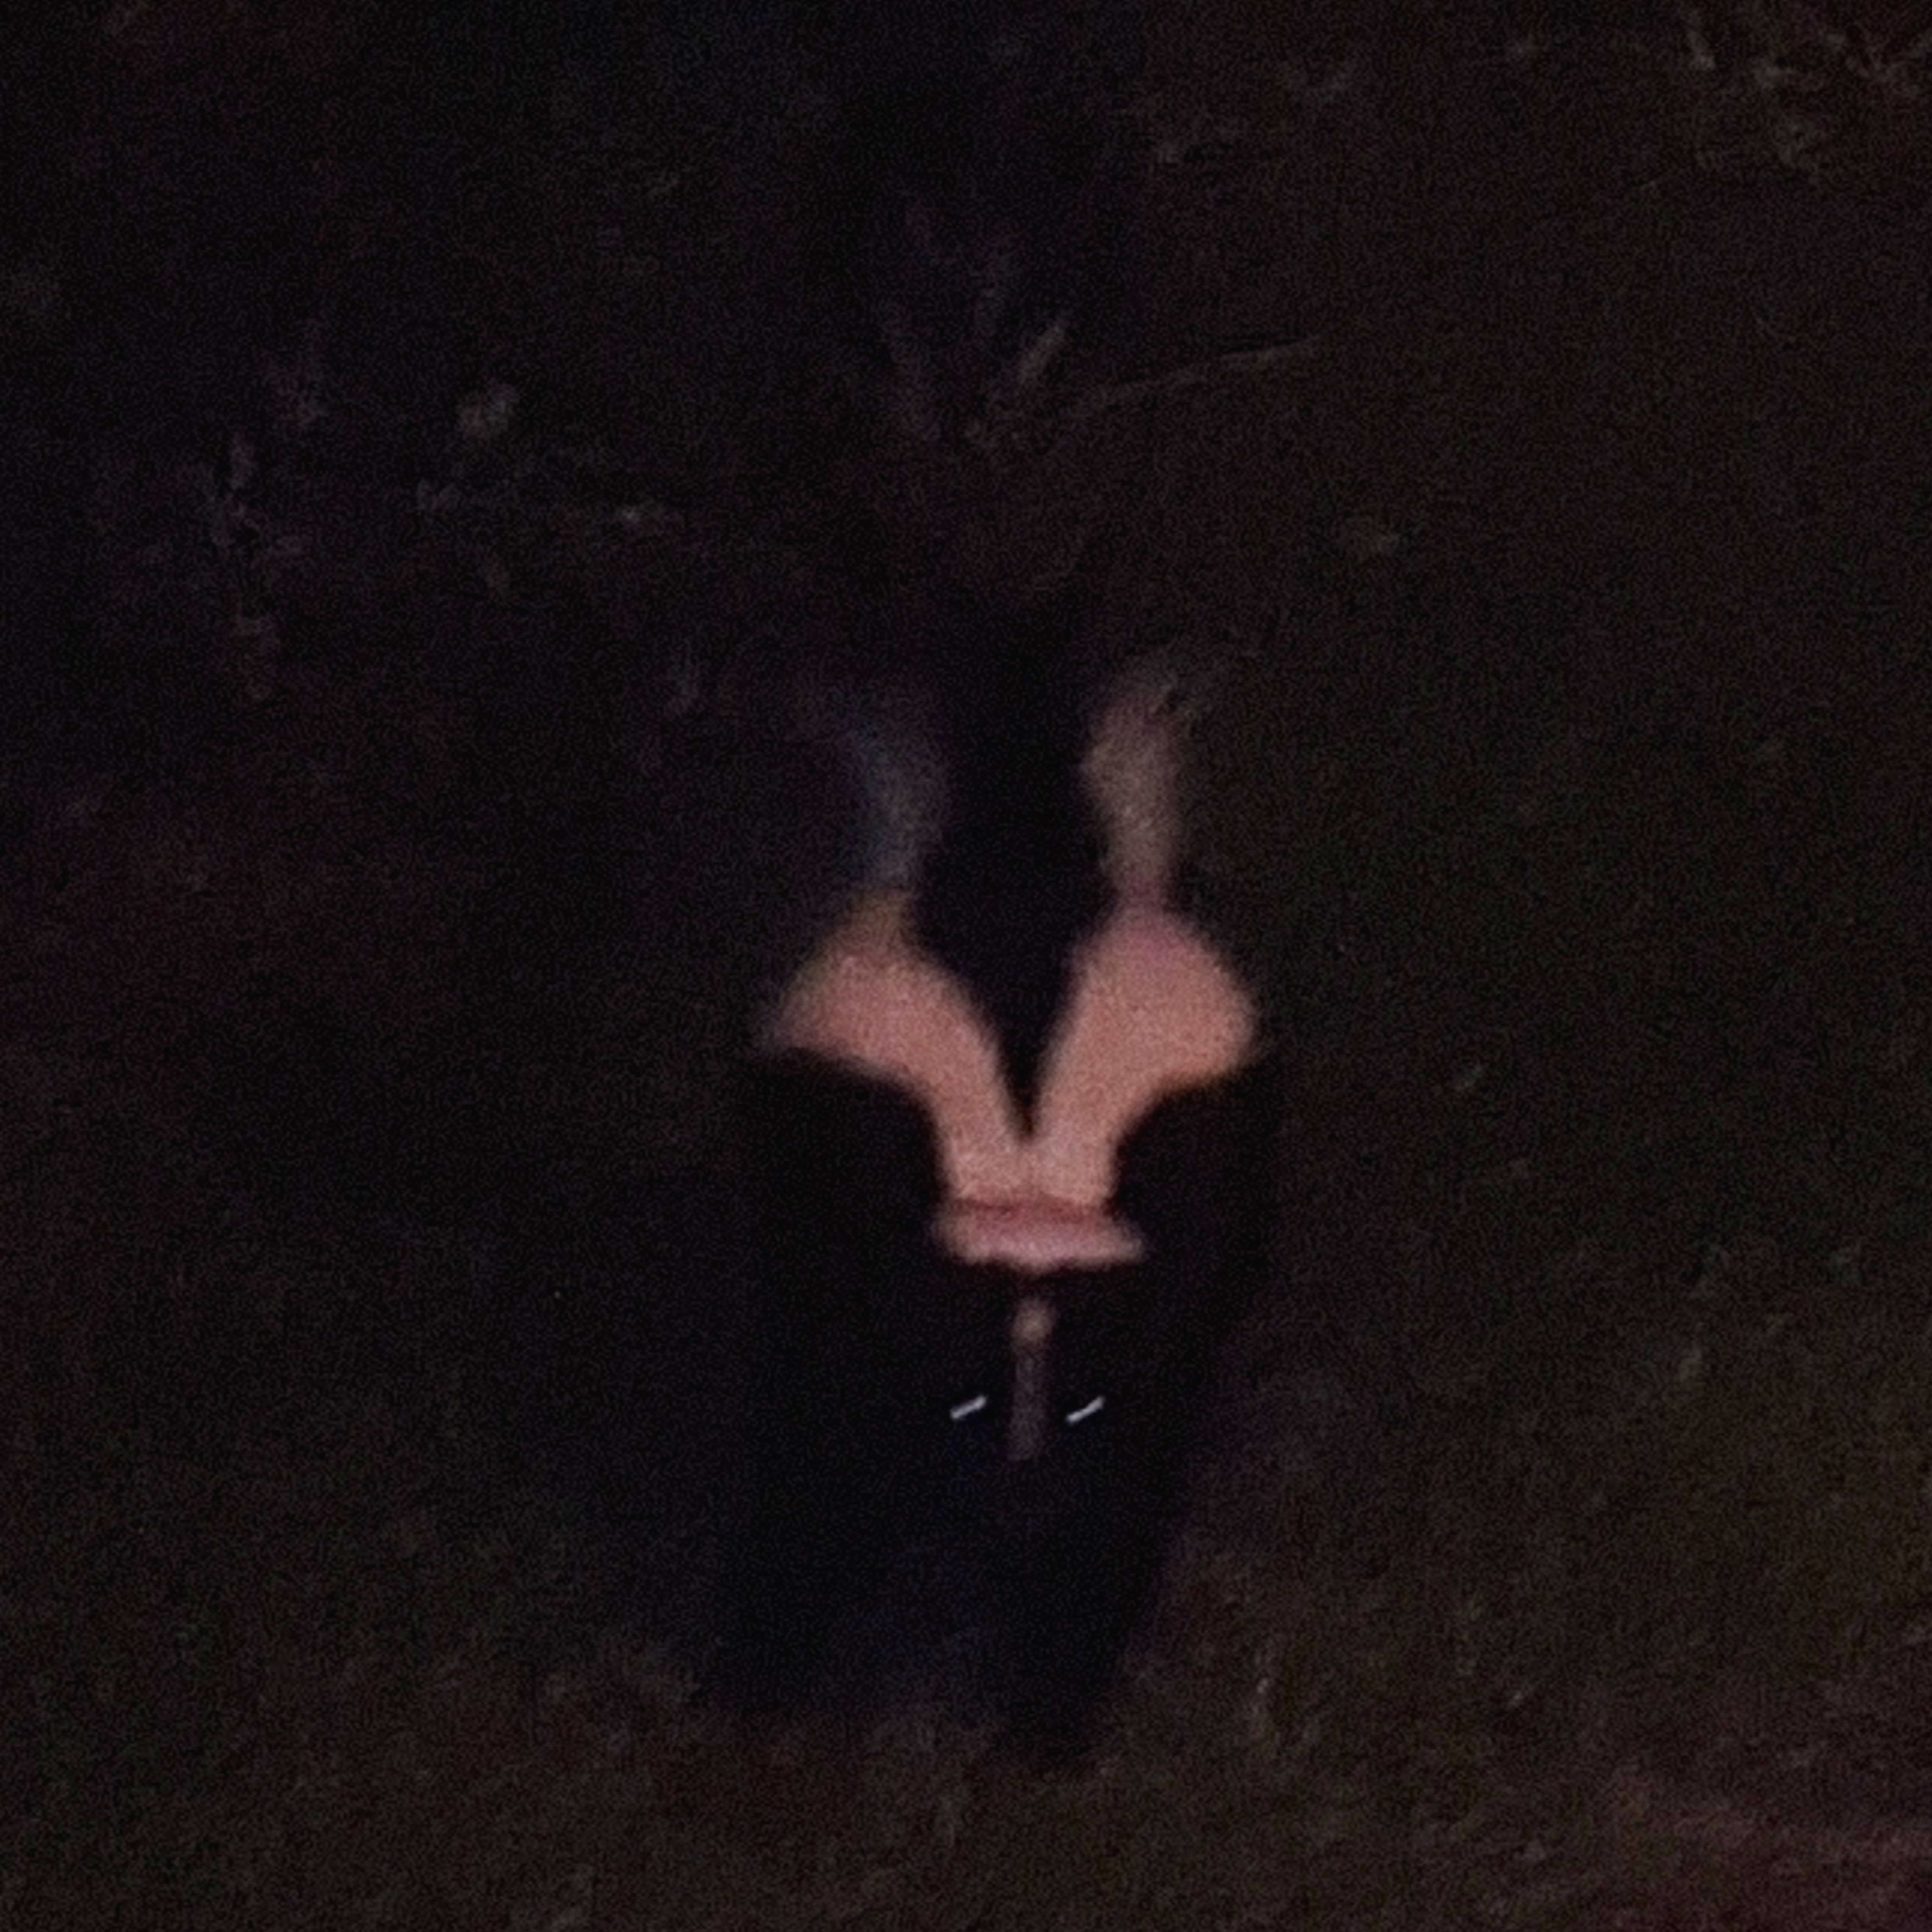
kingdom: Animalia
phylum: Chordata
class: Mammalia
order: Carnivora
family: Mephitidae
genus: Mephitis
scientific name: Mephitis mephitis
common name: Striped skunk
